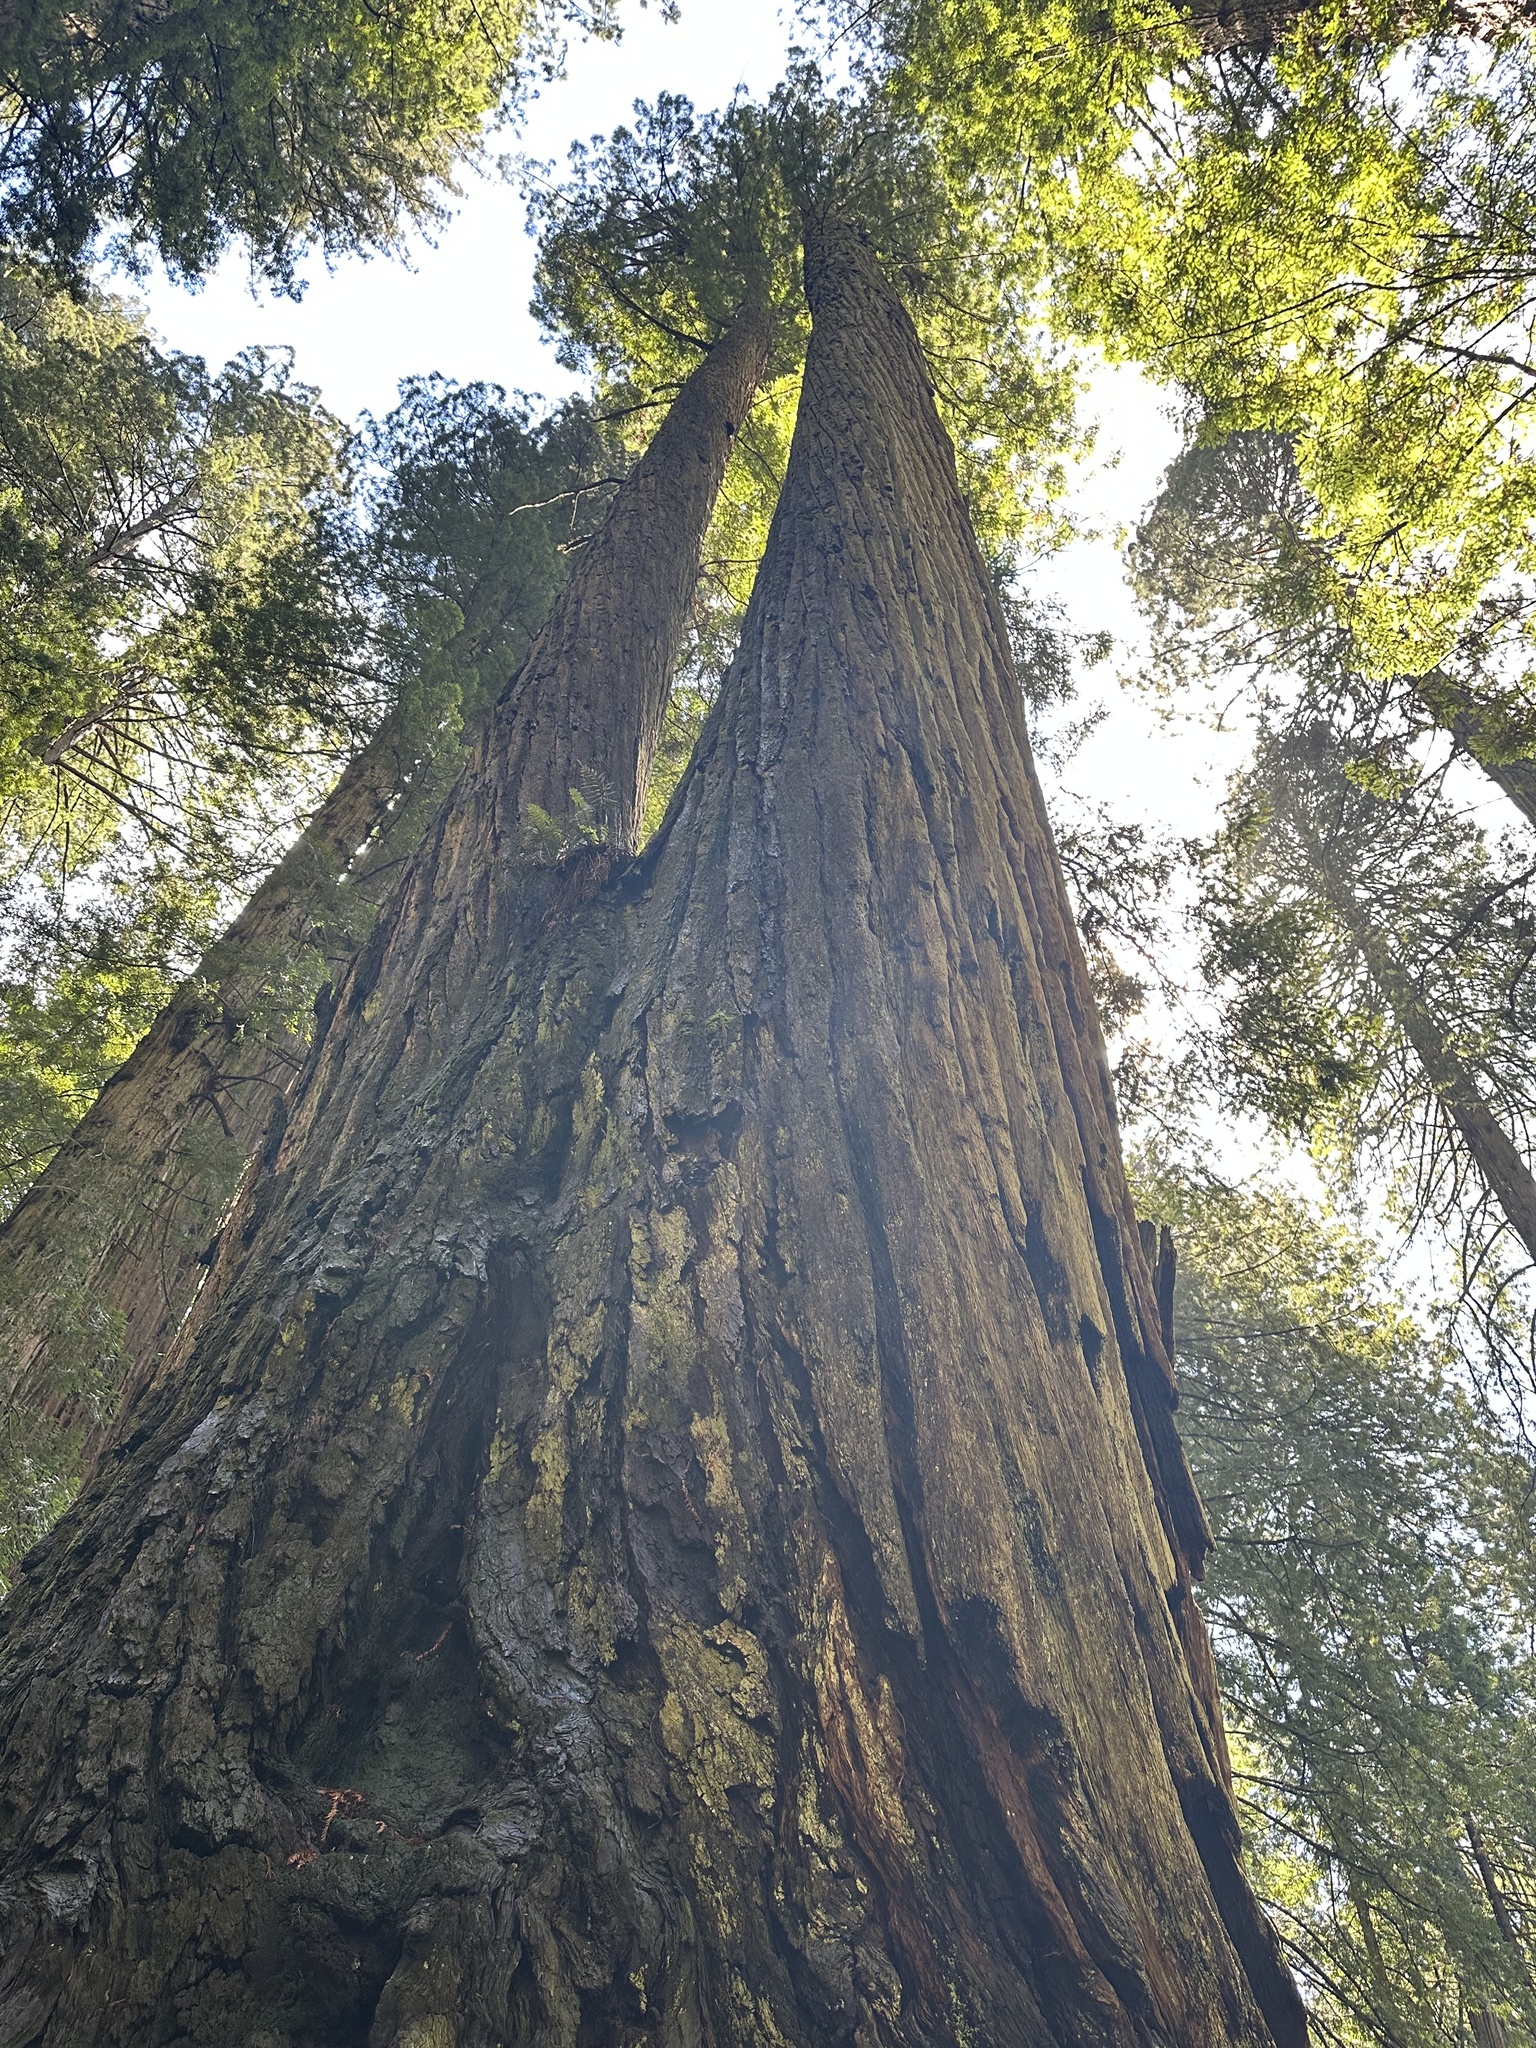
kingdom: Plantae
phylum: Tracheophyta
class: Pinopsida
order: Pinales
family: Cupressaceae
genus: Sequoia
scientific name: Sequoia sempervirens
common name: Coast redwood
